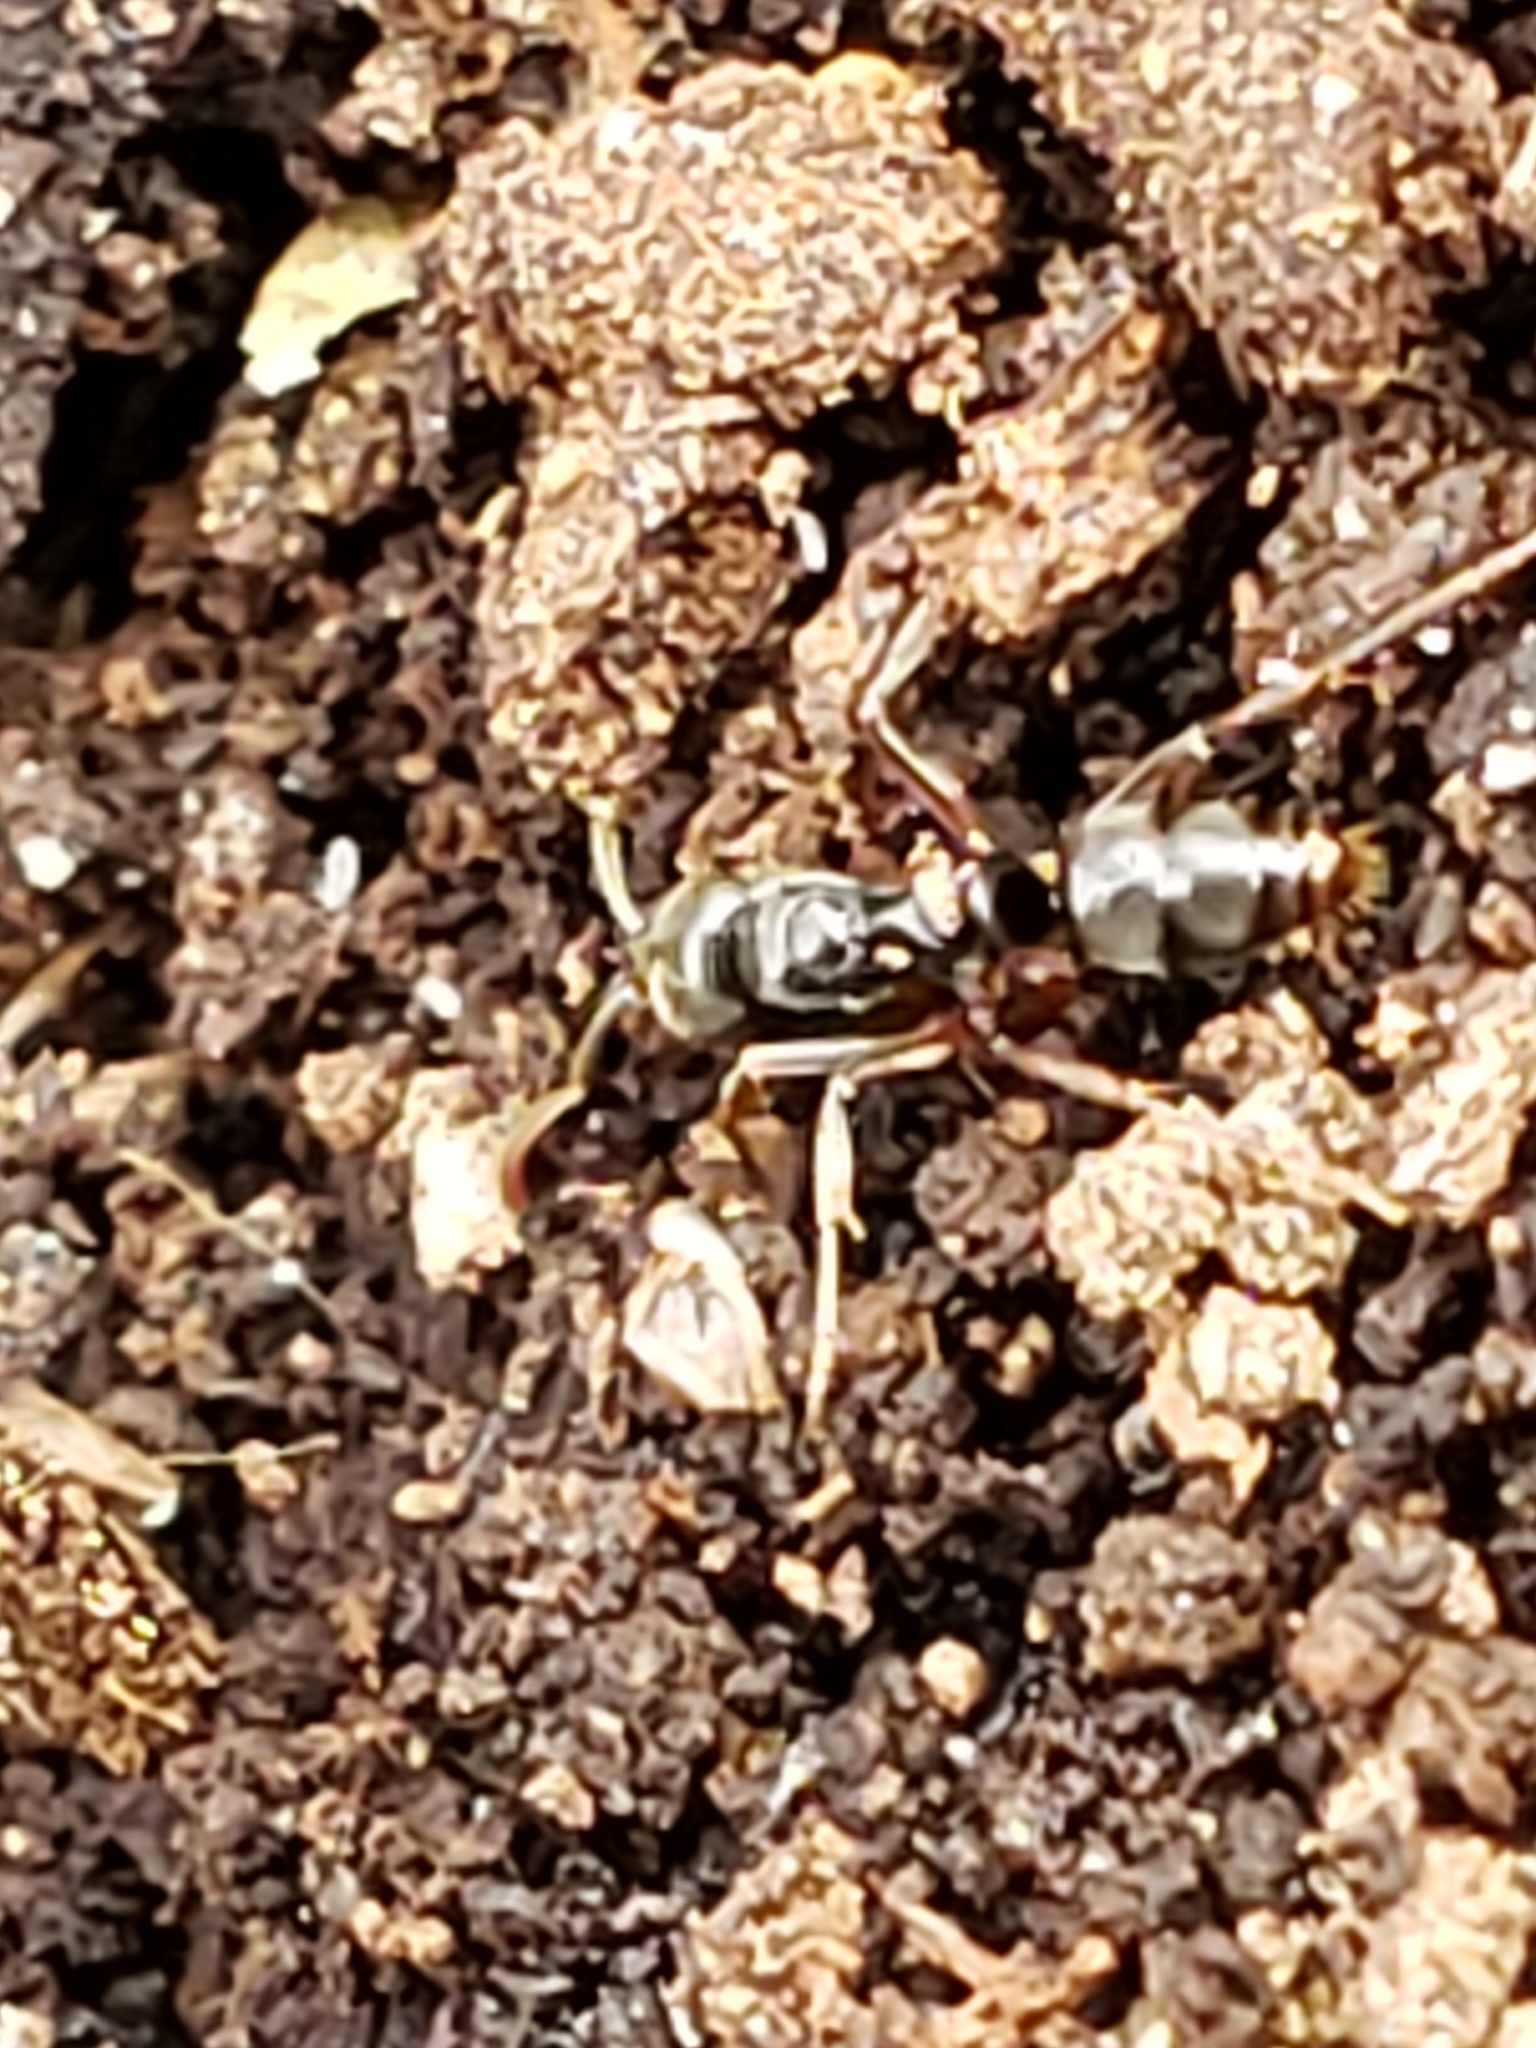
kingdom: Animalia
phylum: Arthropoda
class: Insecta
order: Hymenoptera
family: Formicidae
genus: Pachycondyla
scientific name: Pachycondyla chinensis
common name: Asian needle ant
